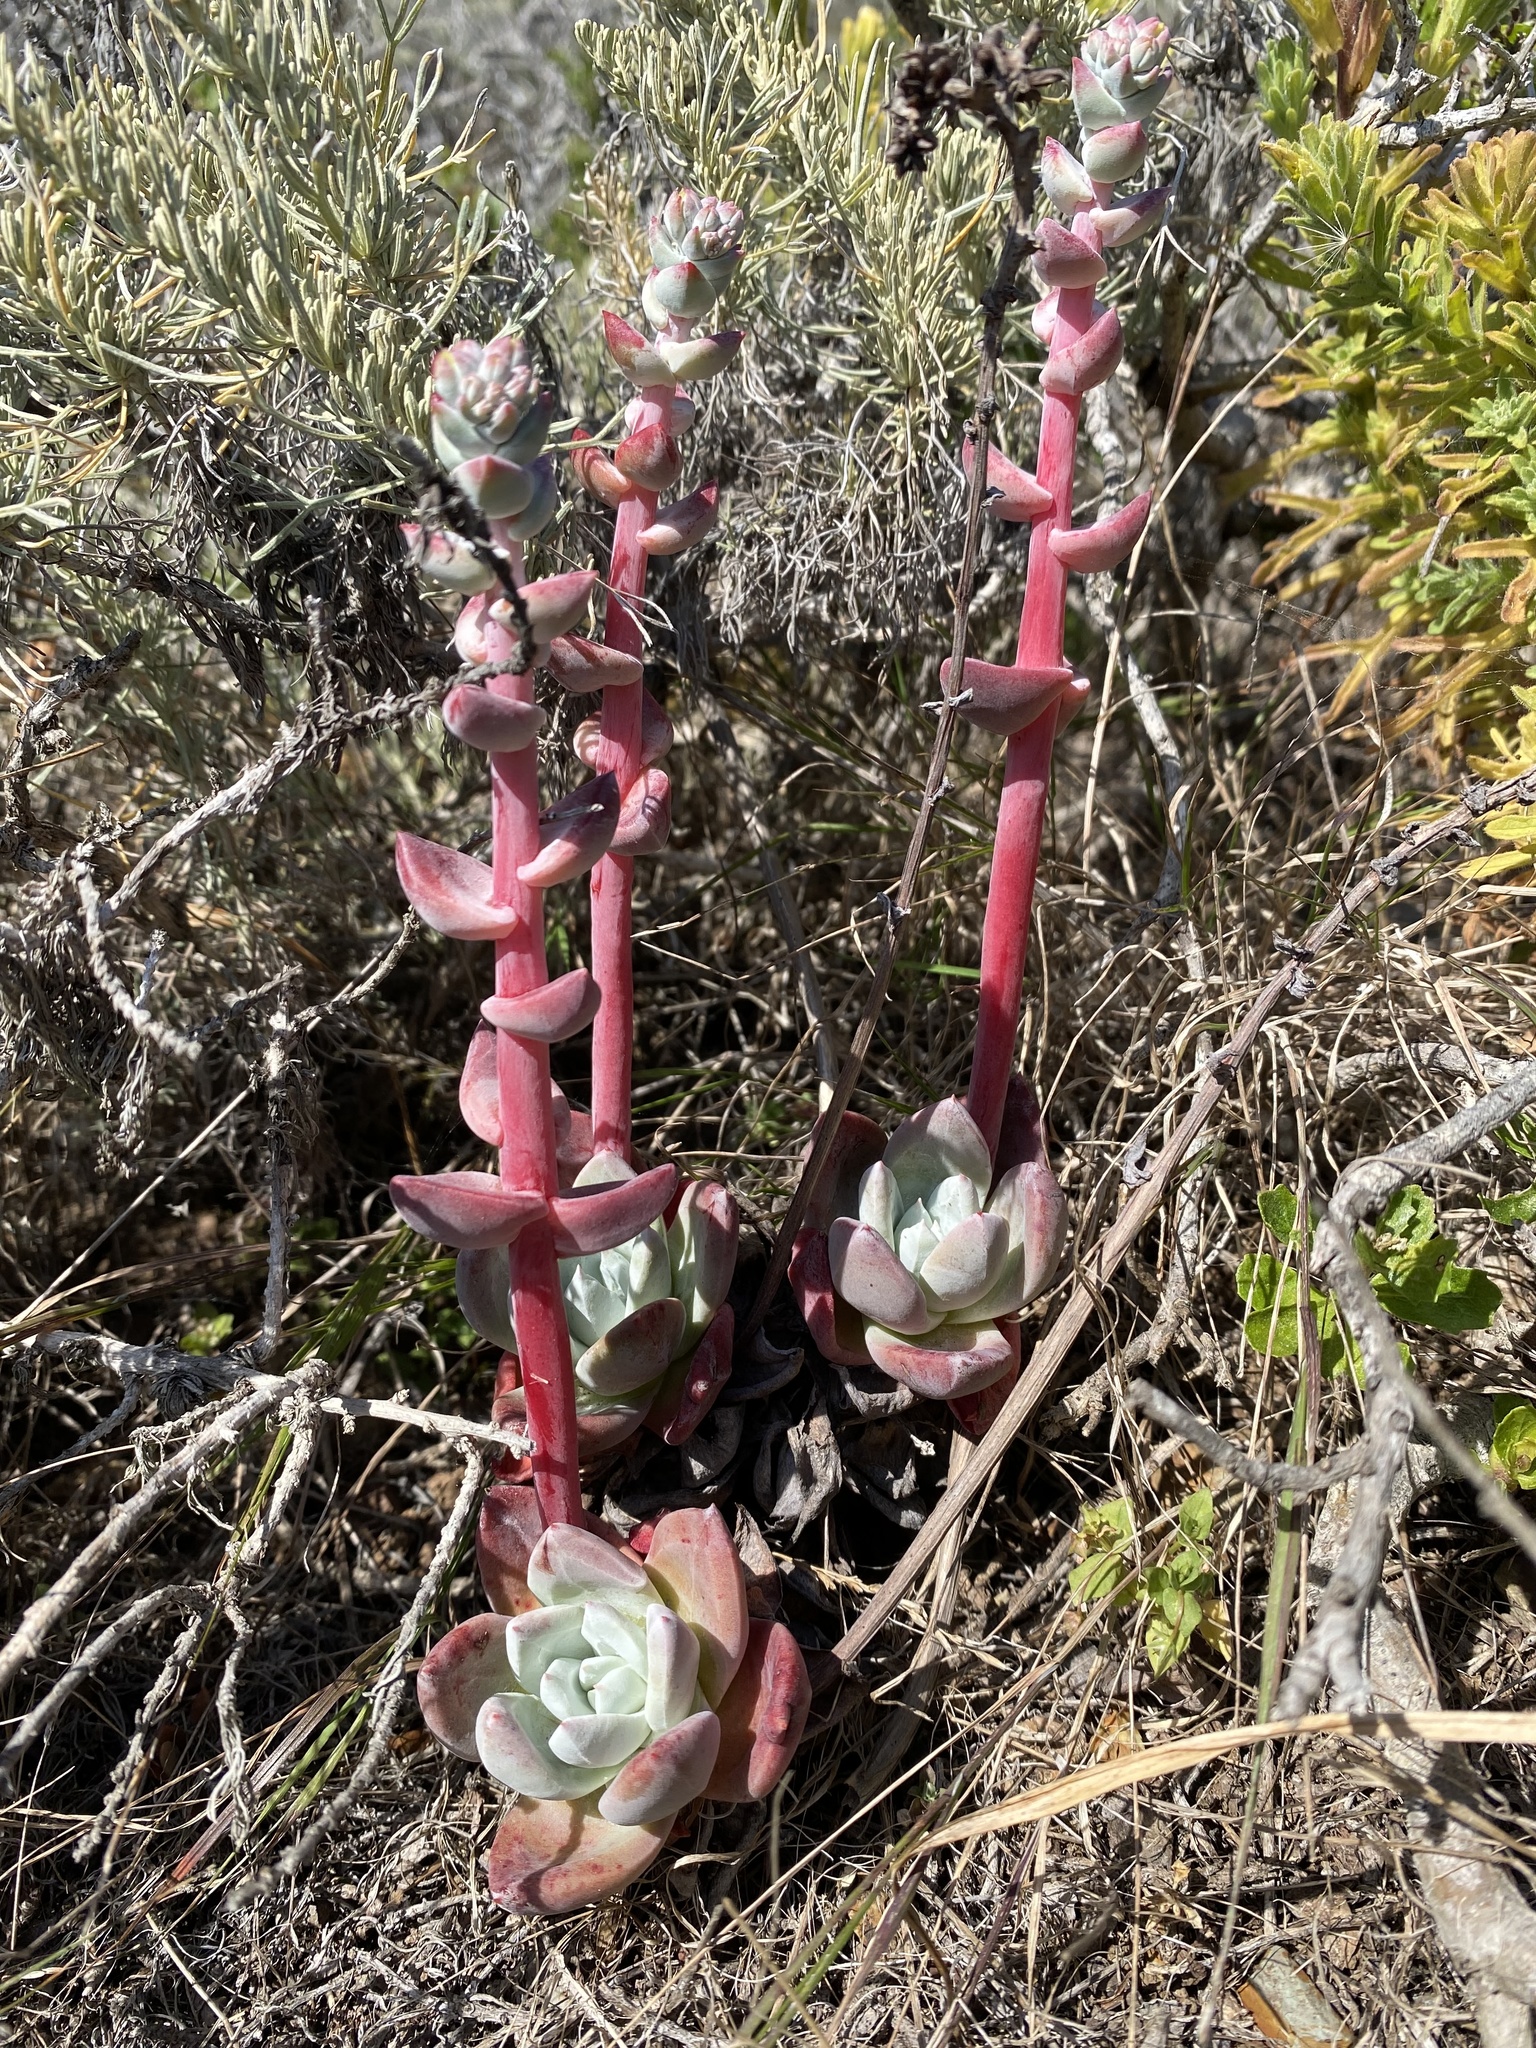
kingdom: Plantae
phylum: Tracheophyta
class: Magnoliopsida
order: Saxifragales
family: Crassulaceae
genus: Dudleya
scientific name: Dudleya farinosa
